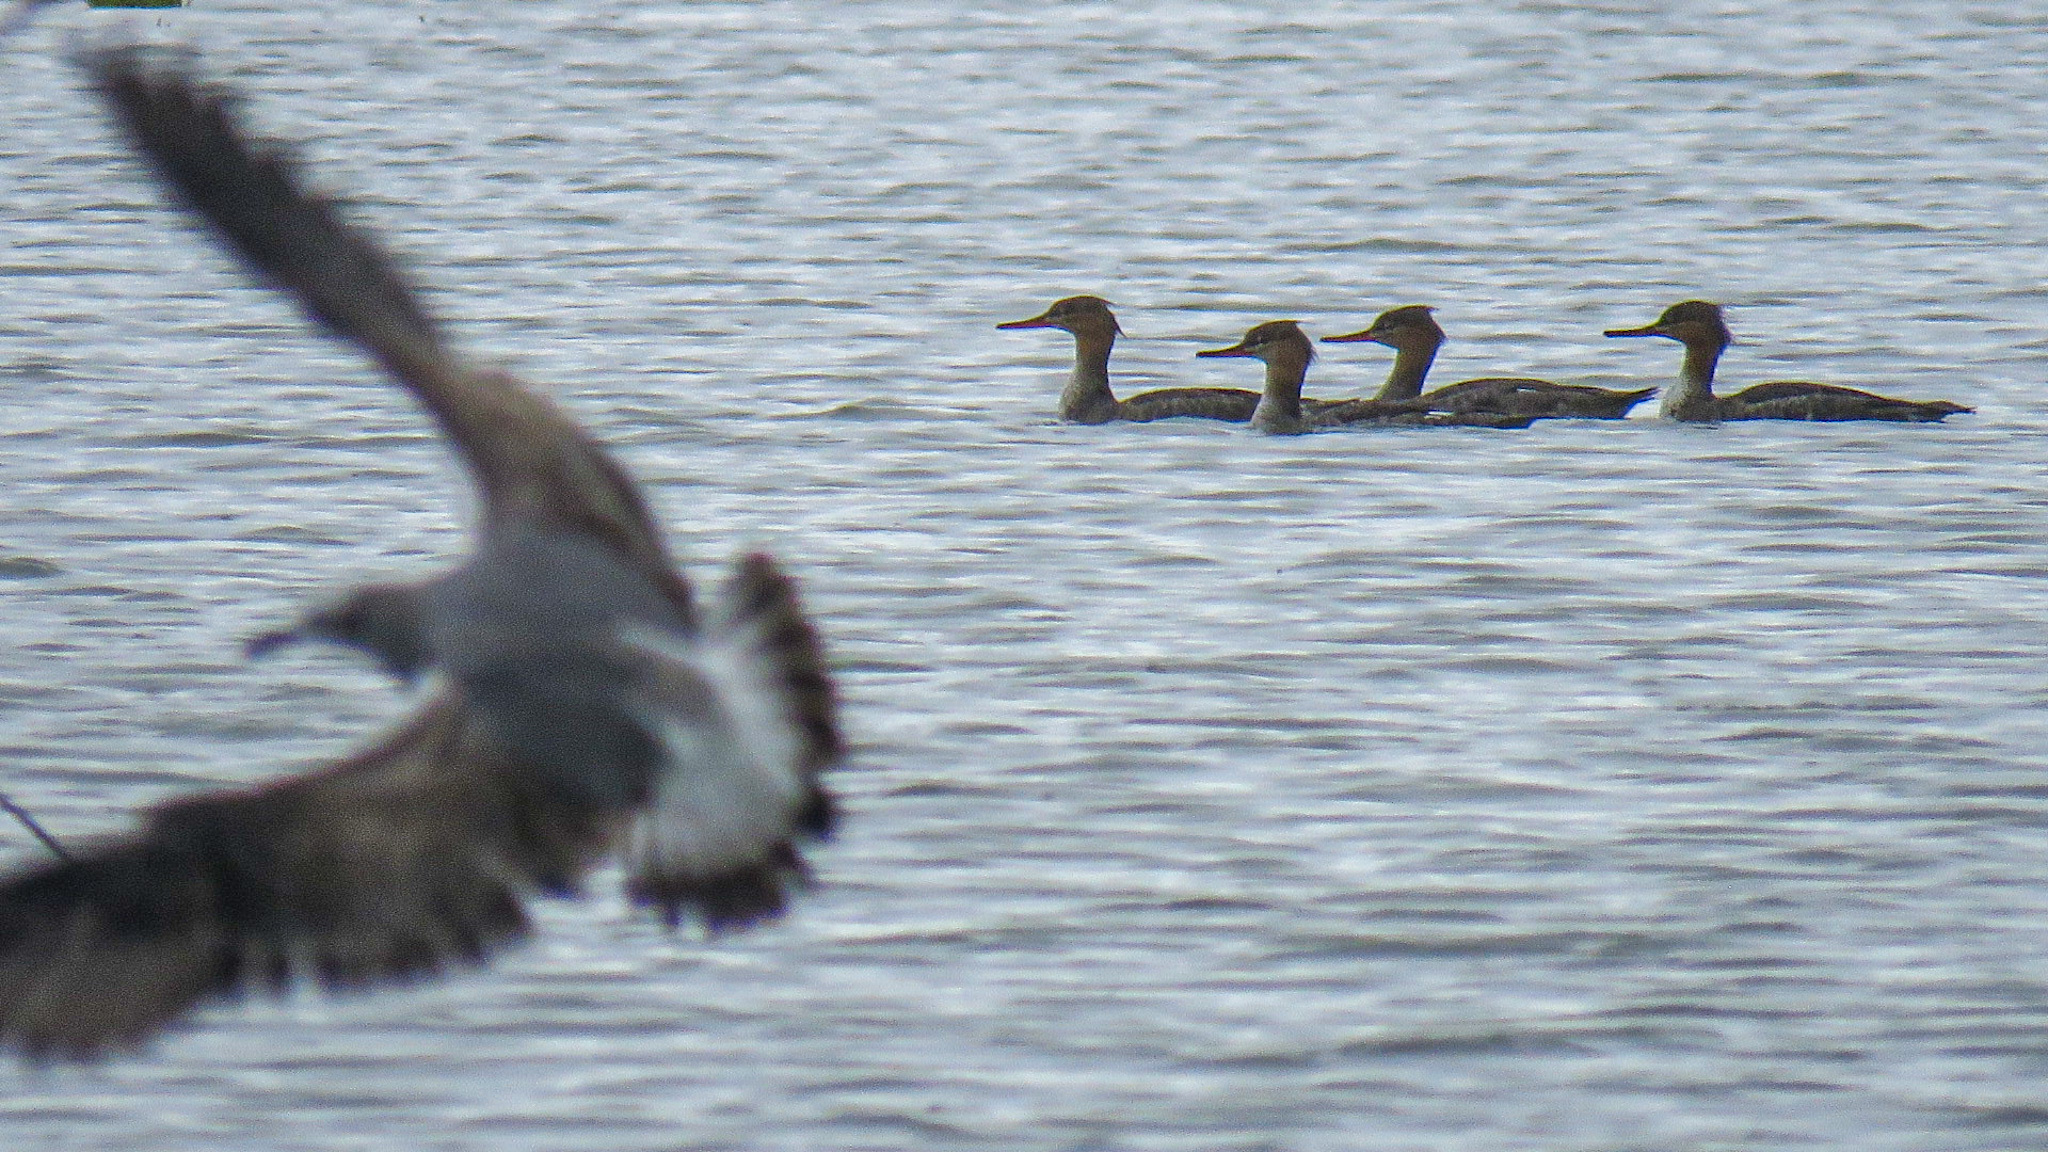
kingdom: Animalia
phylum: Chordata
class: Aves
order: Anseriformes
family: Anatidae
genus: Mergus
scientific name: Mergus serrator
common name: Red-breasted merganser
